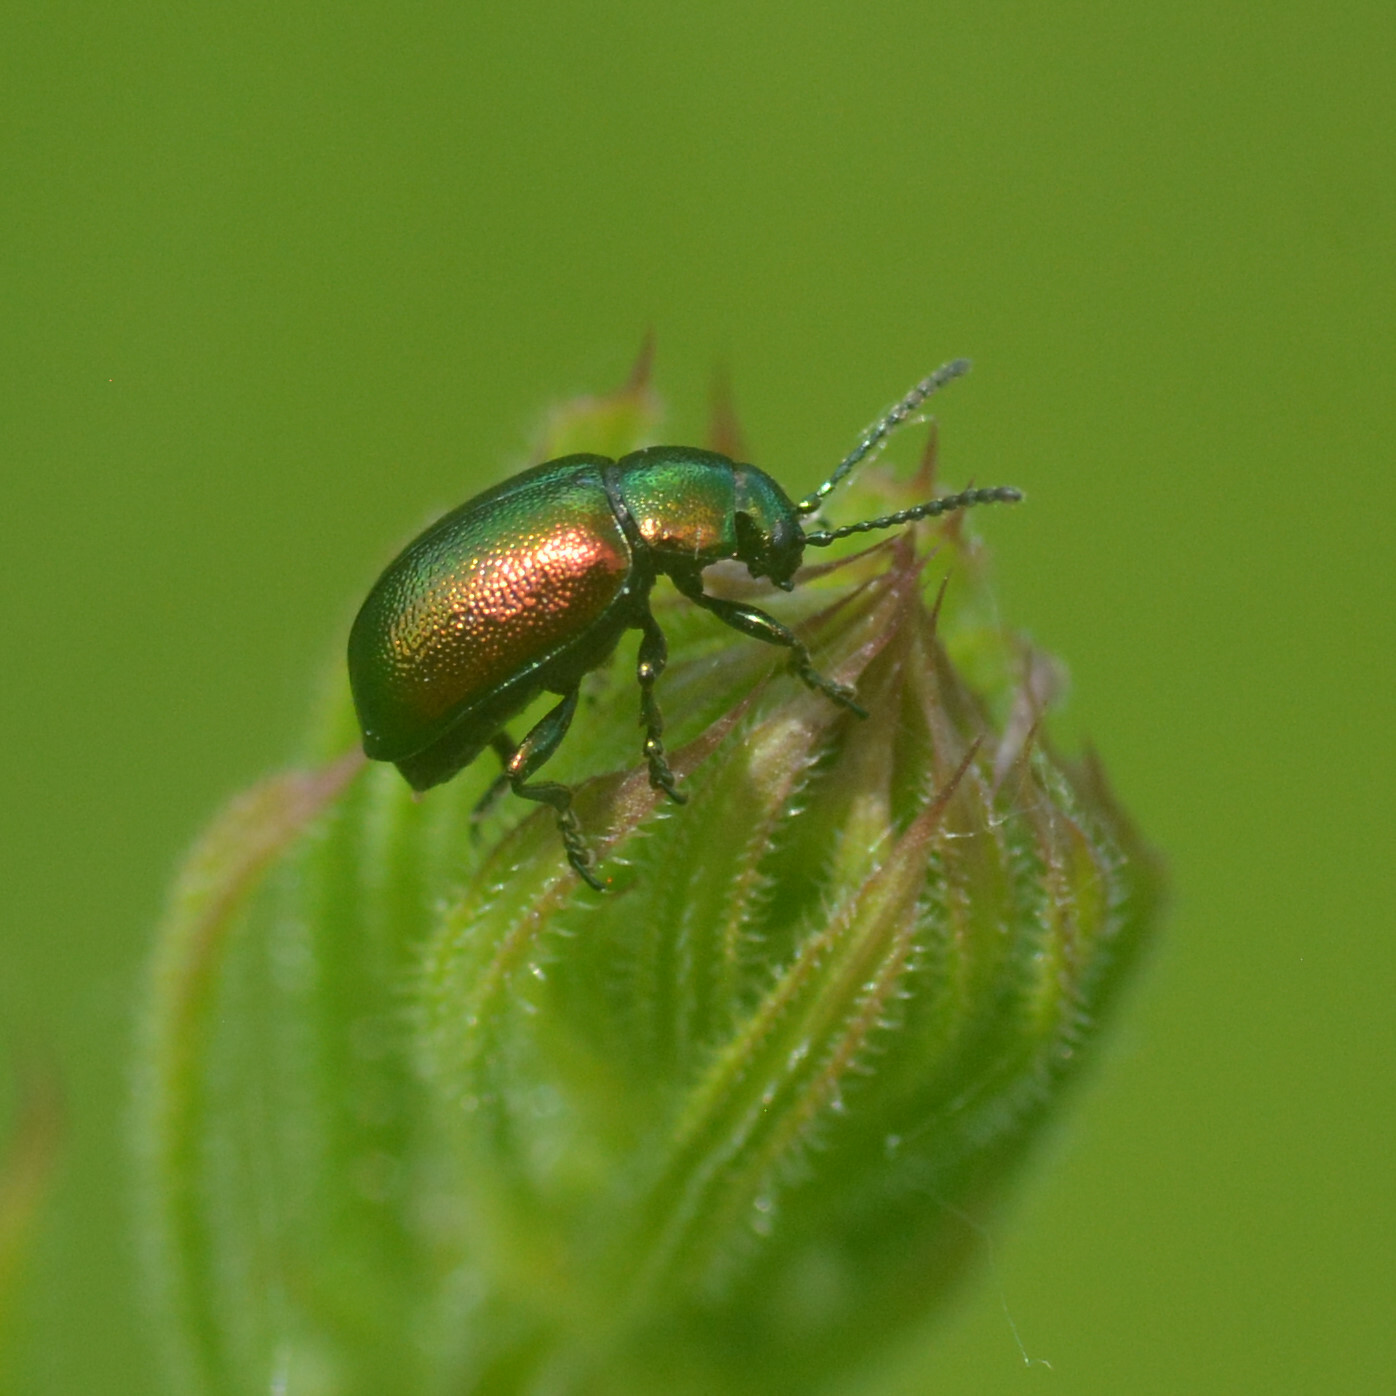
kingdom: Animalia
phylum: Arthropoda
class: Insecta
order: Coleoptera
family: Chrysomelidae
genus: Gastrophysa
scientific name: Gastrophysa viridula
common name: Green dock beetle
